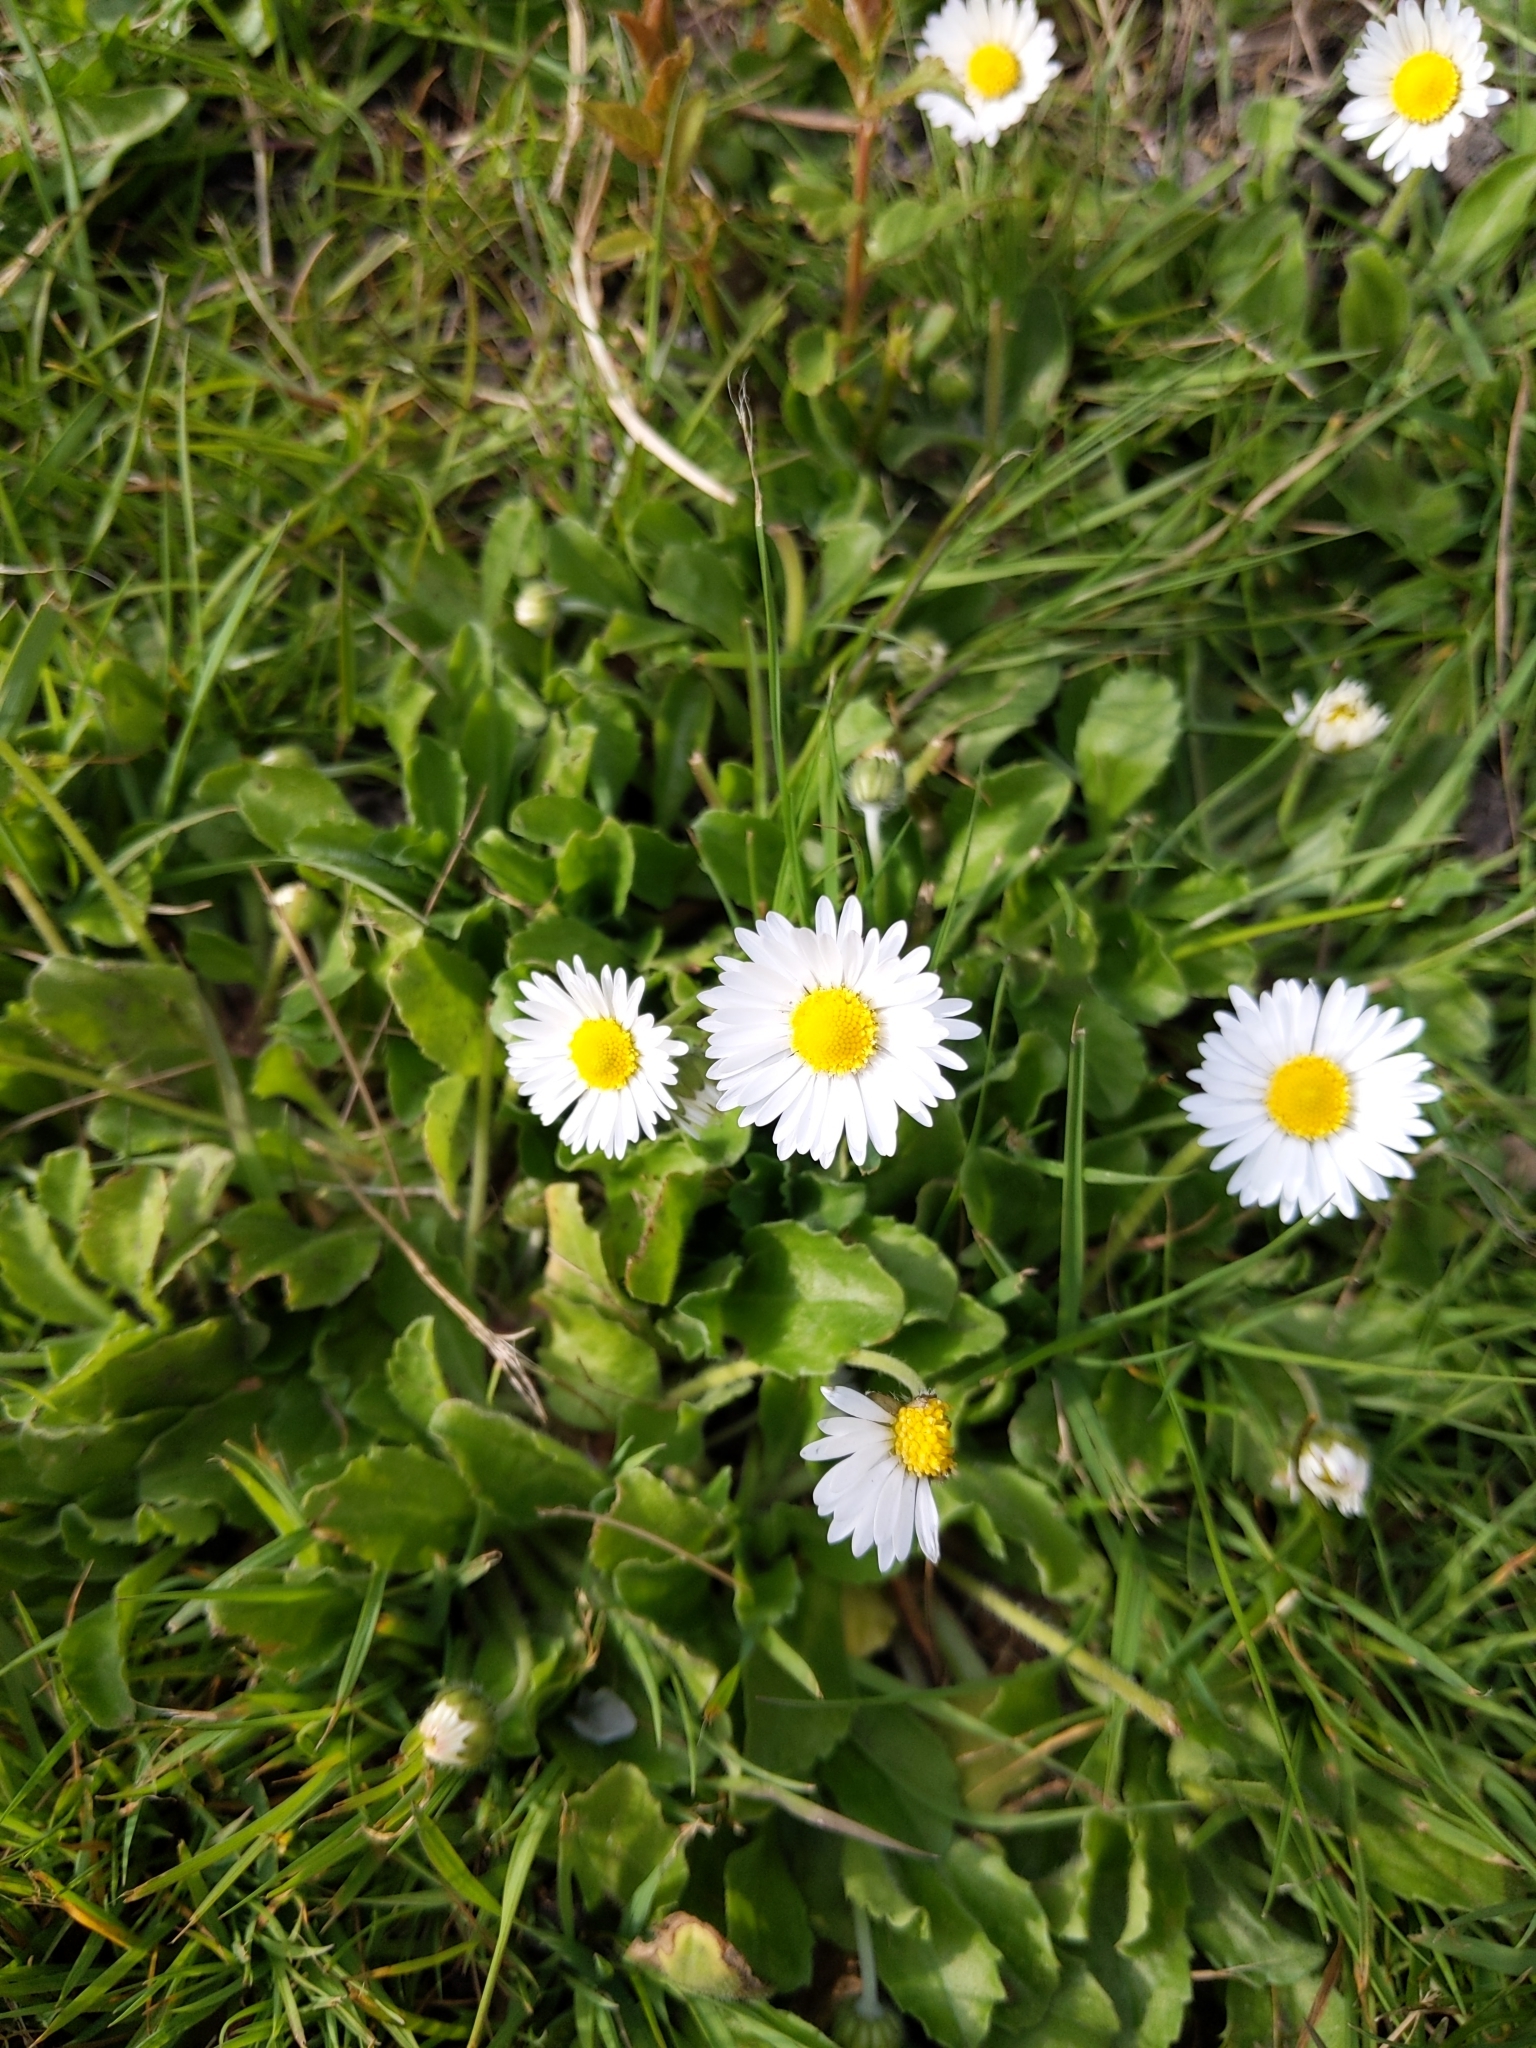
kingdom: Plantae
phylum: Tracheophyta
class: Magnoliopsida
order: Asterales
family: Asteraceae
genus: Bellis
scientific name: Bellis perennis
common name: Lawndaisy
